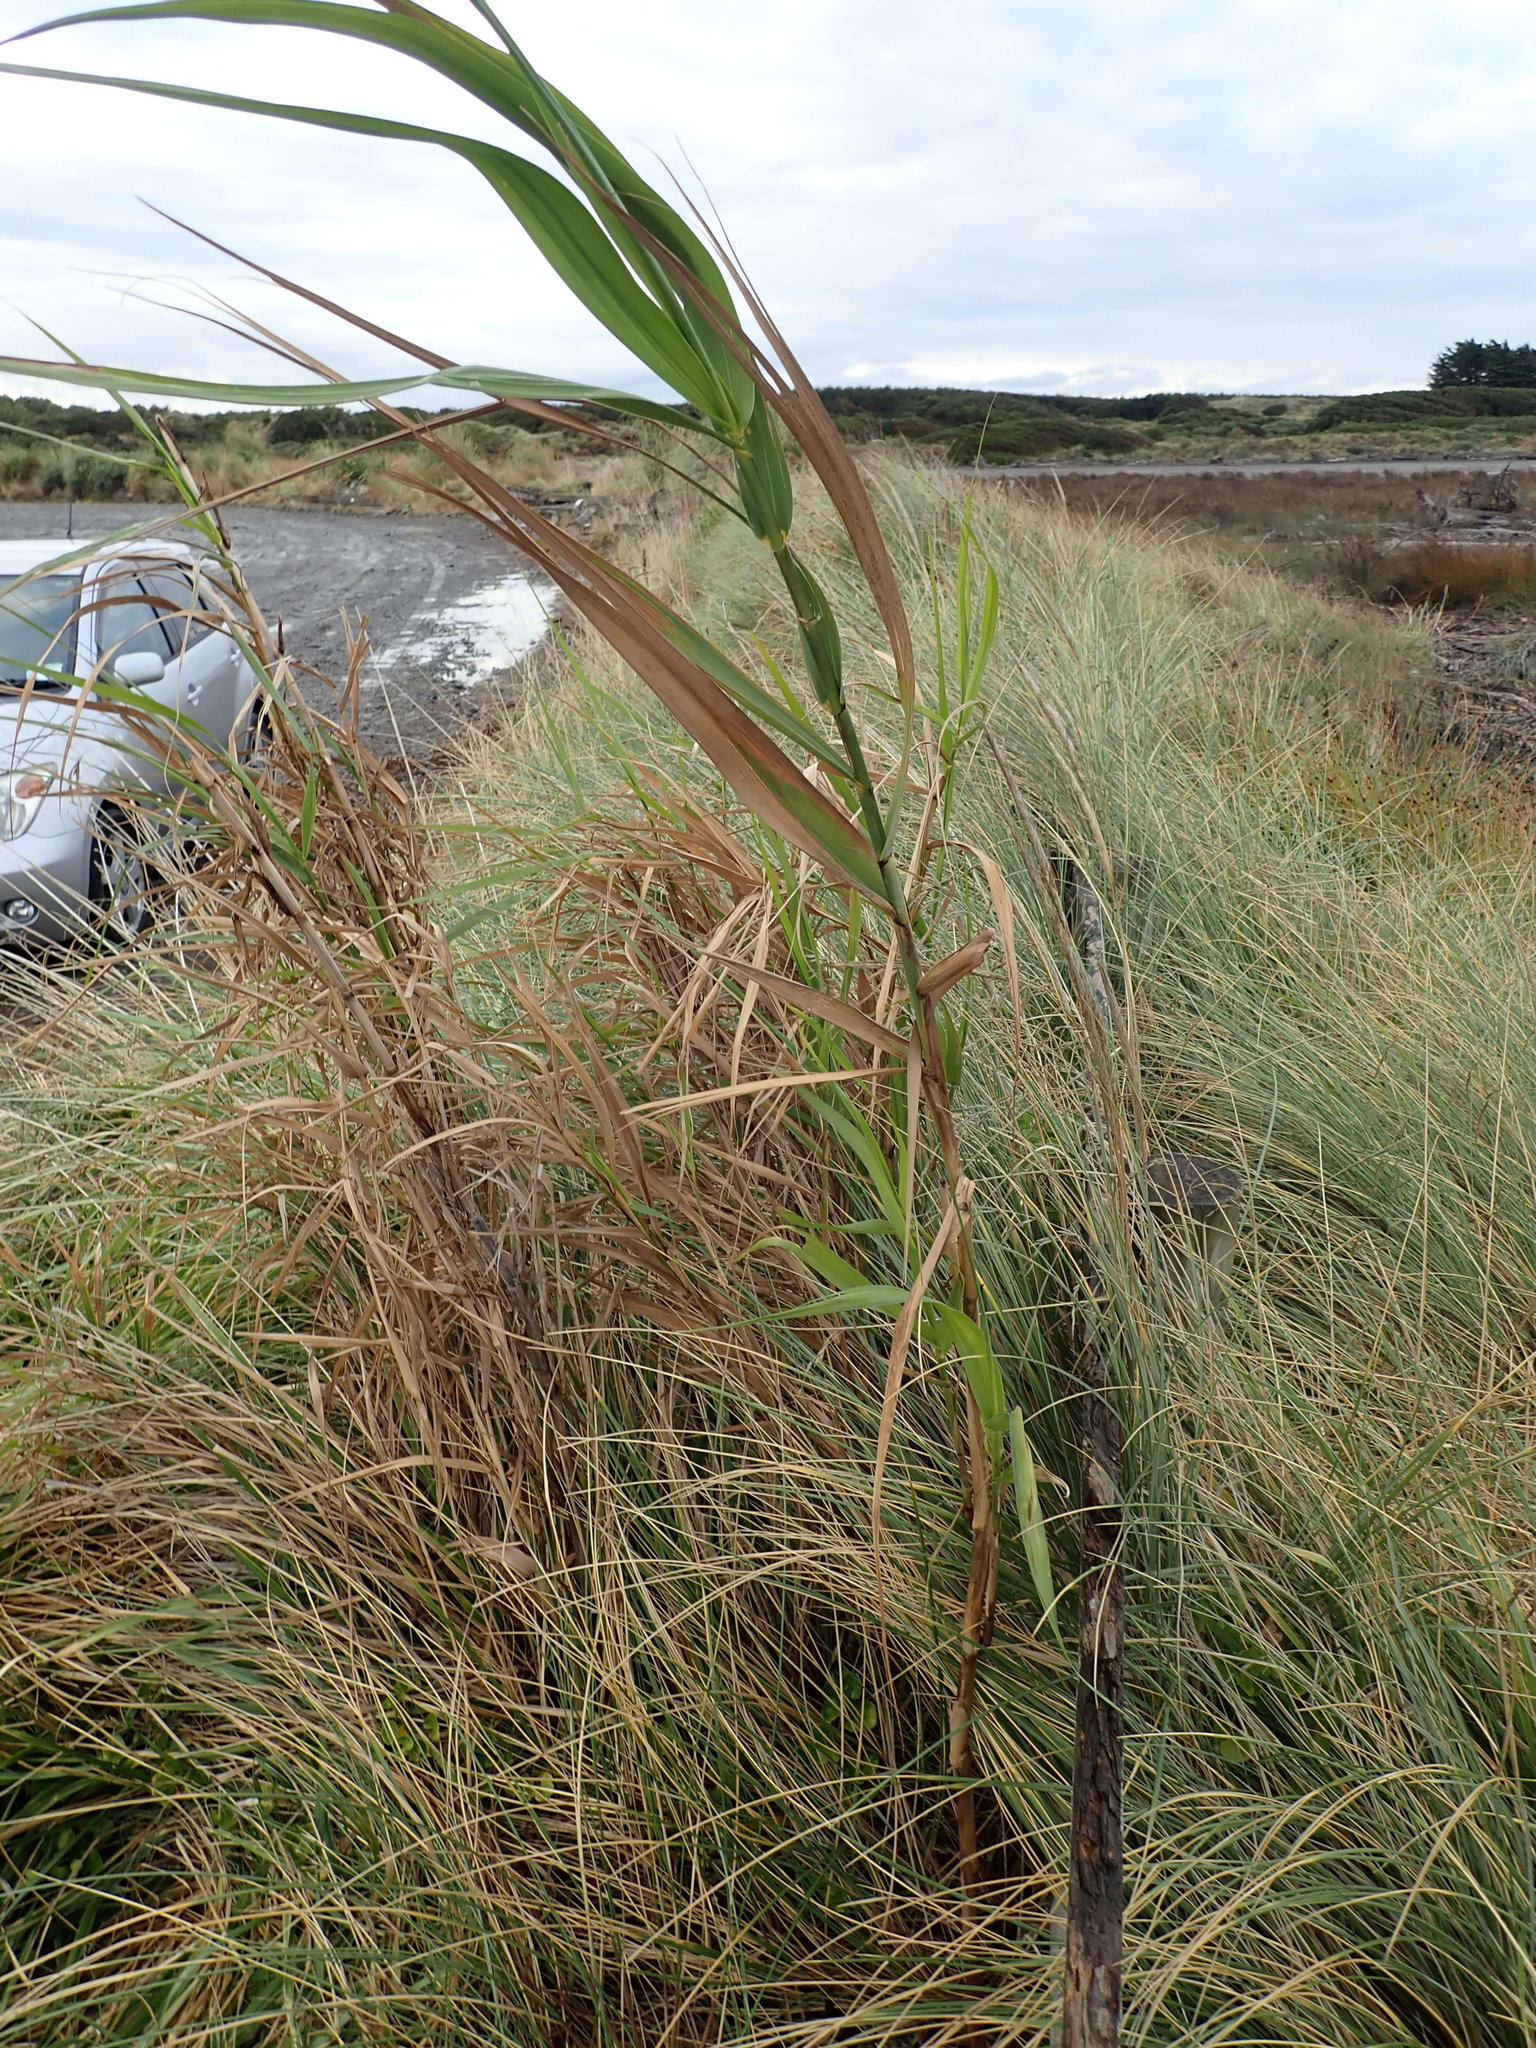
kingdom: Plantae
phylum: Tracheophyta
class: Liliopsida
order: Poales
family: Poaceae
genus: Arundo
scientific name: Arundo donax
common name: Giant reed
